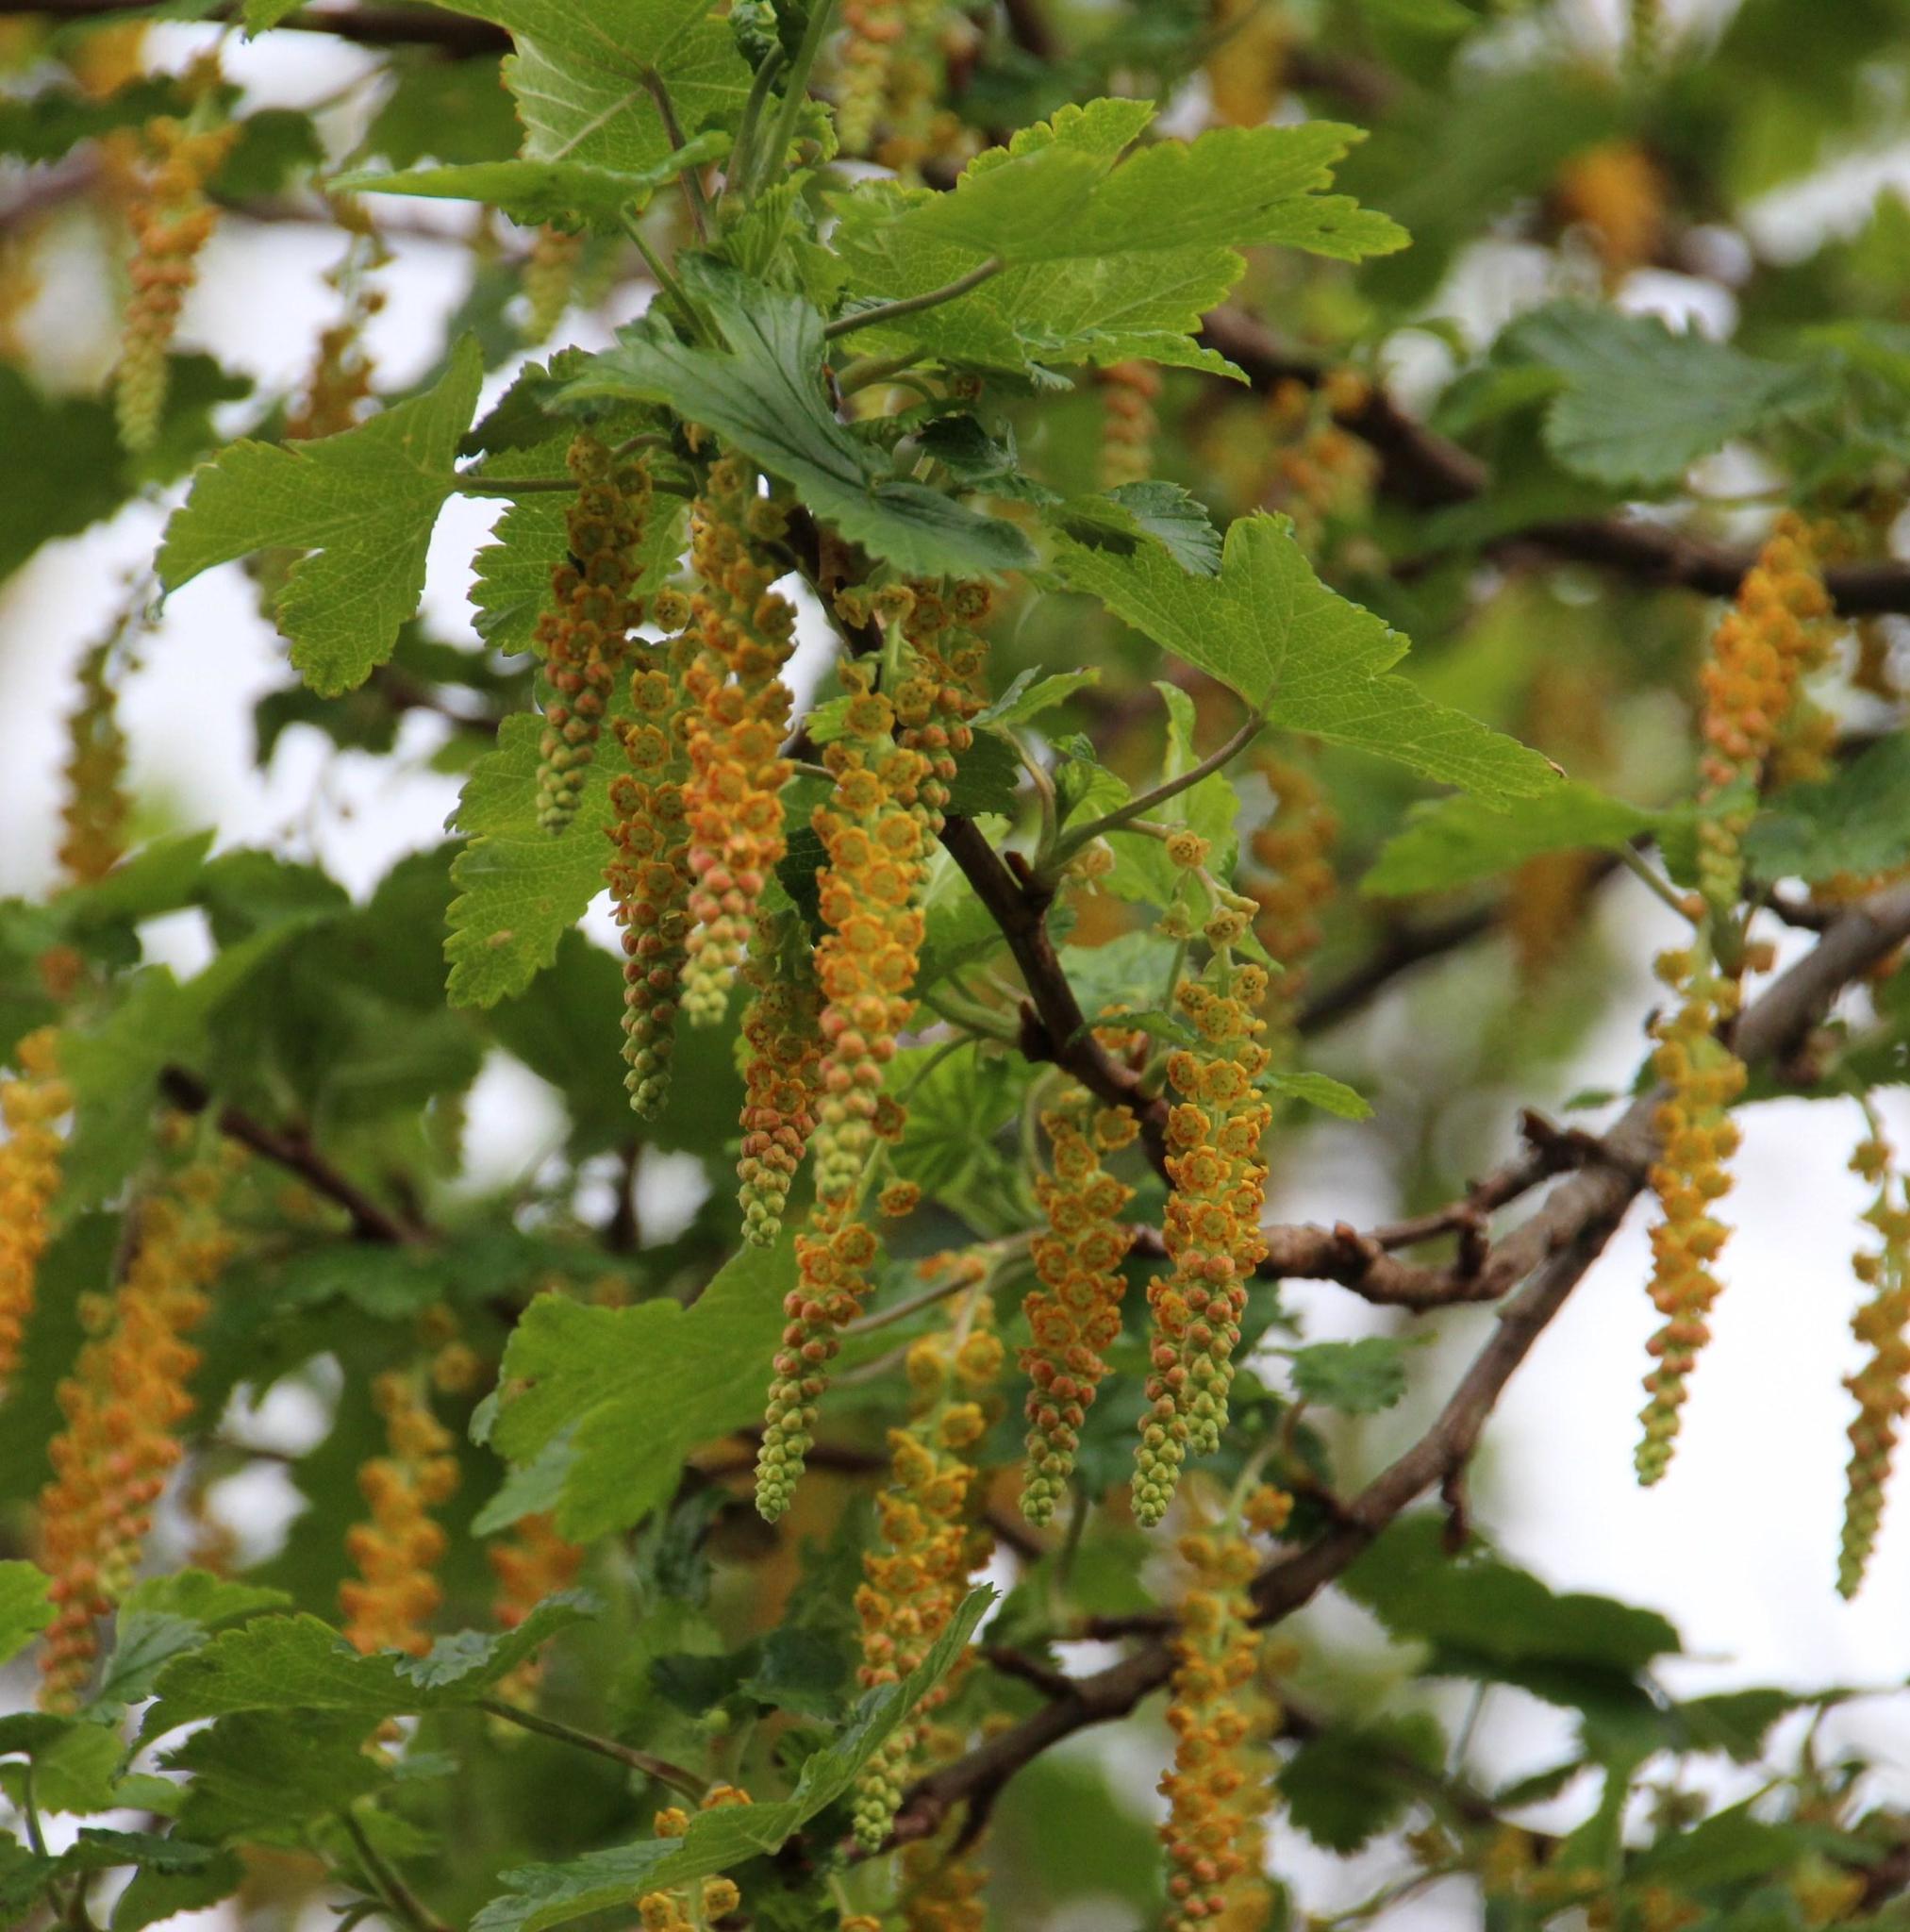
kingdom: Plantae
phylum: Tracheophyta
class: Magnoliopsida
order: Saxifragales
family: Grossulariaceae
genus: Ribes
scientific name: Ribes magellanicum
